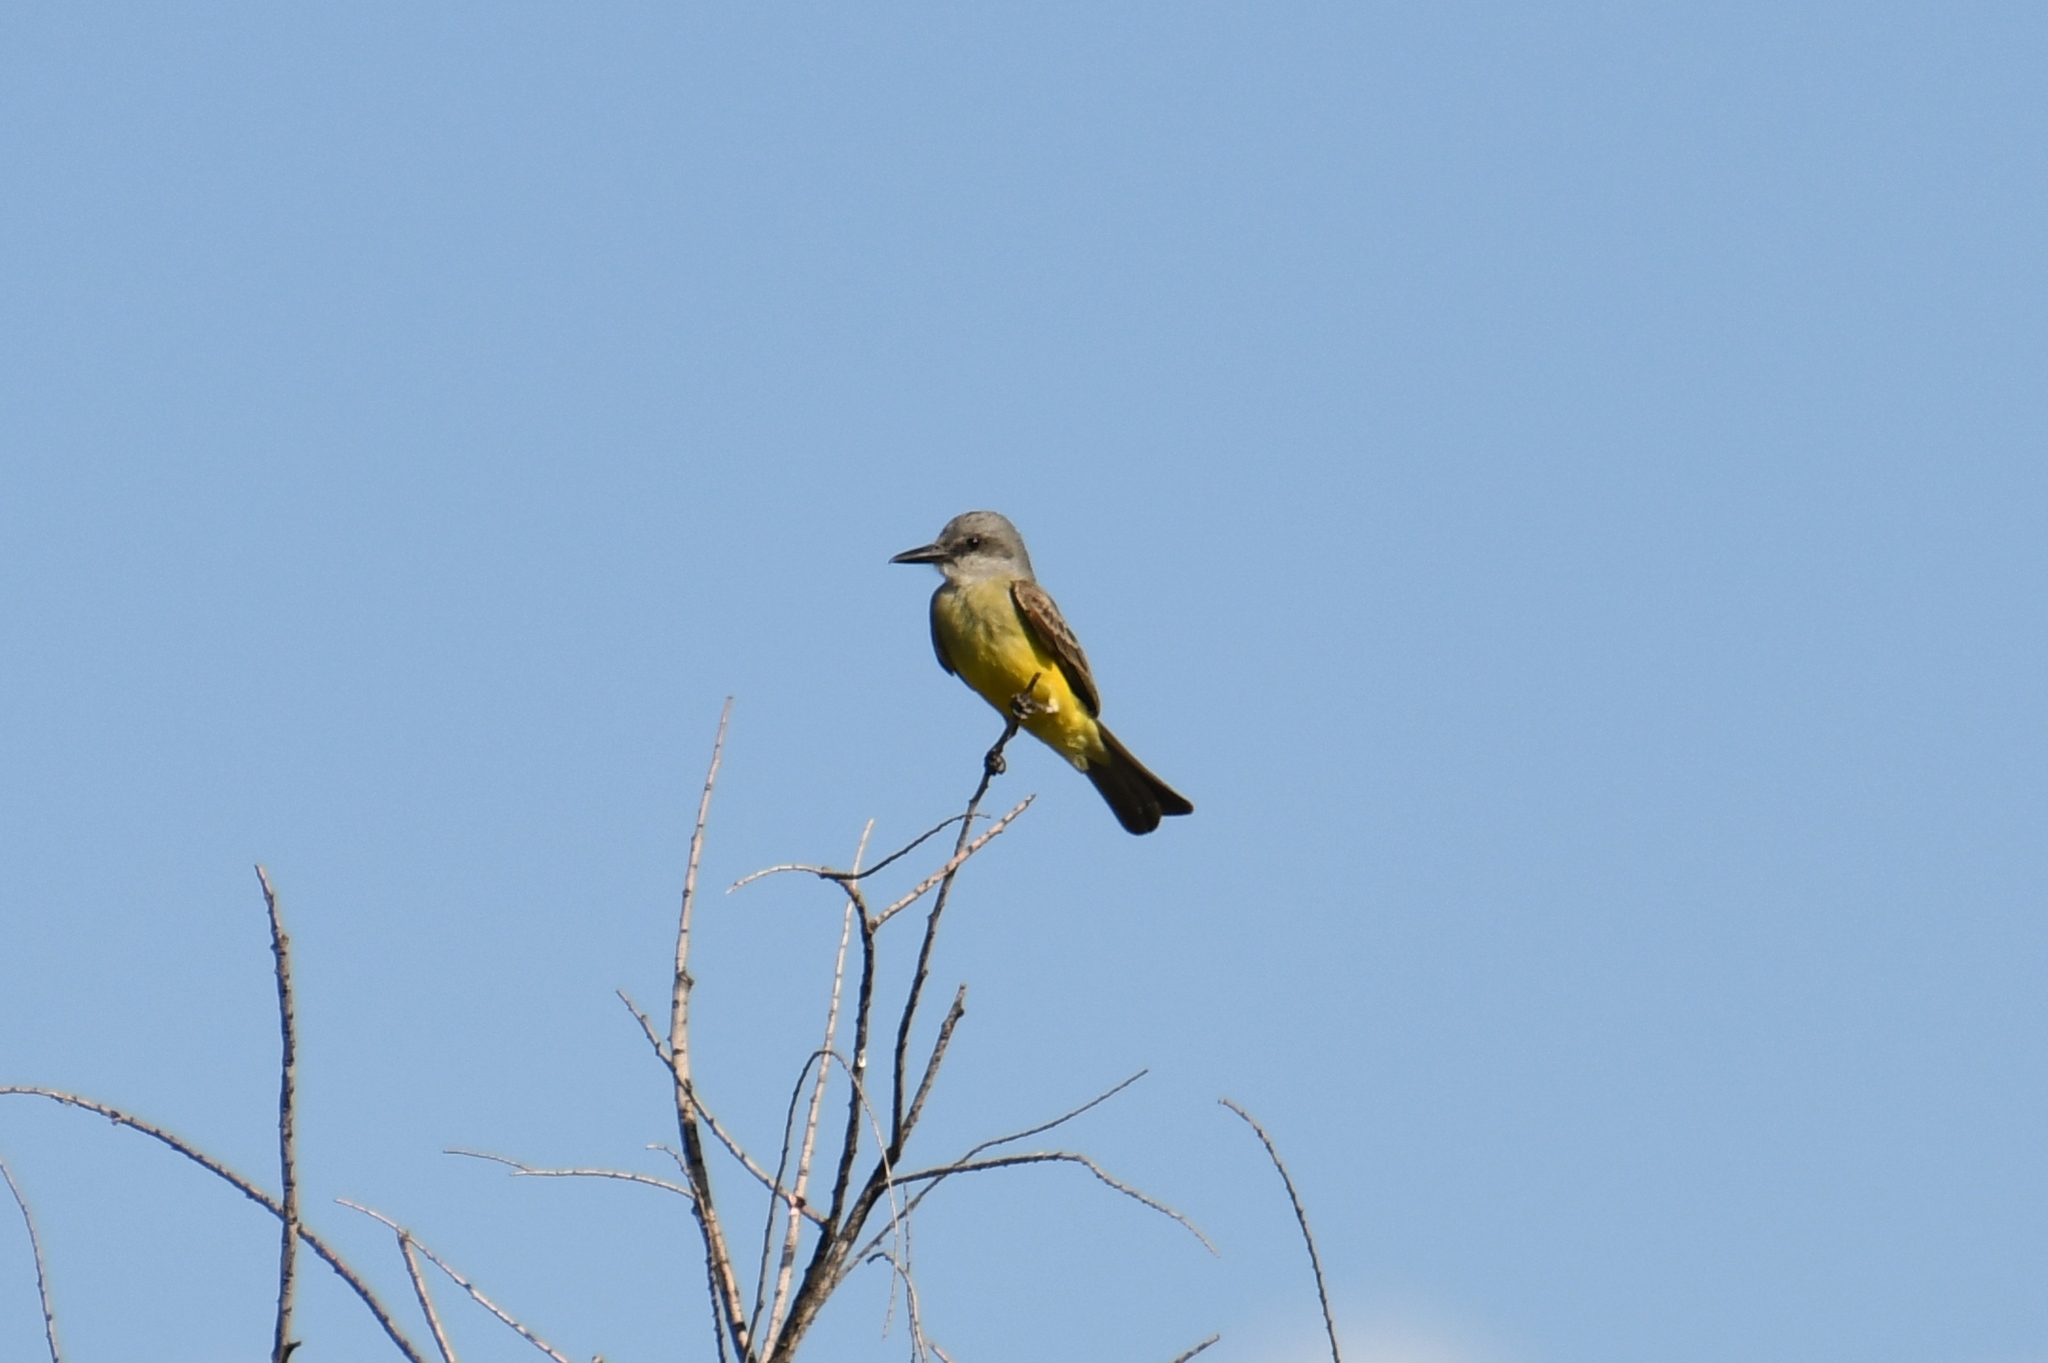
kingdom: Animalia
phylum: Chordata
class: Aves
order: Passeriformes
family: Tyrannidae
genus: Tyrannus
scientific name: Tyrannus melancholicus
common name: Tropical kingbird
